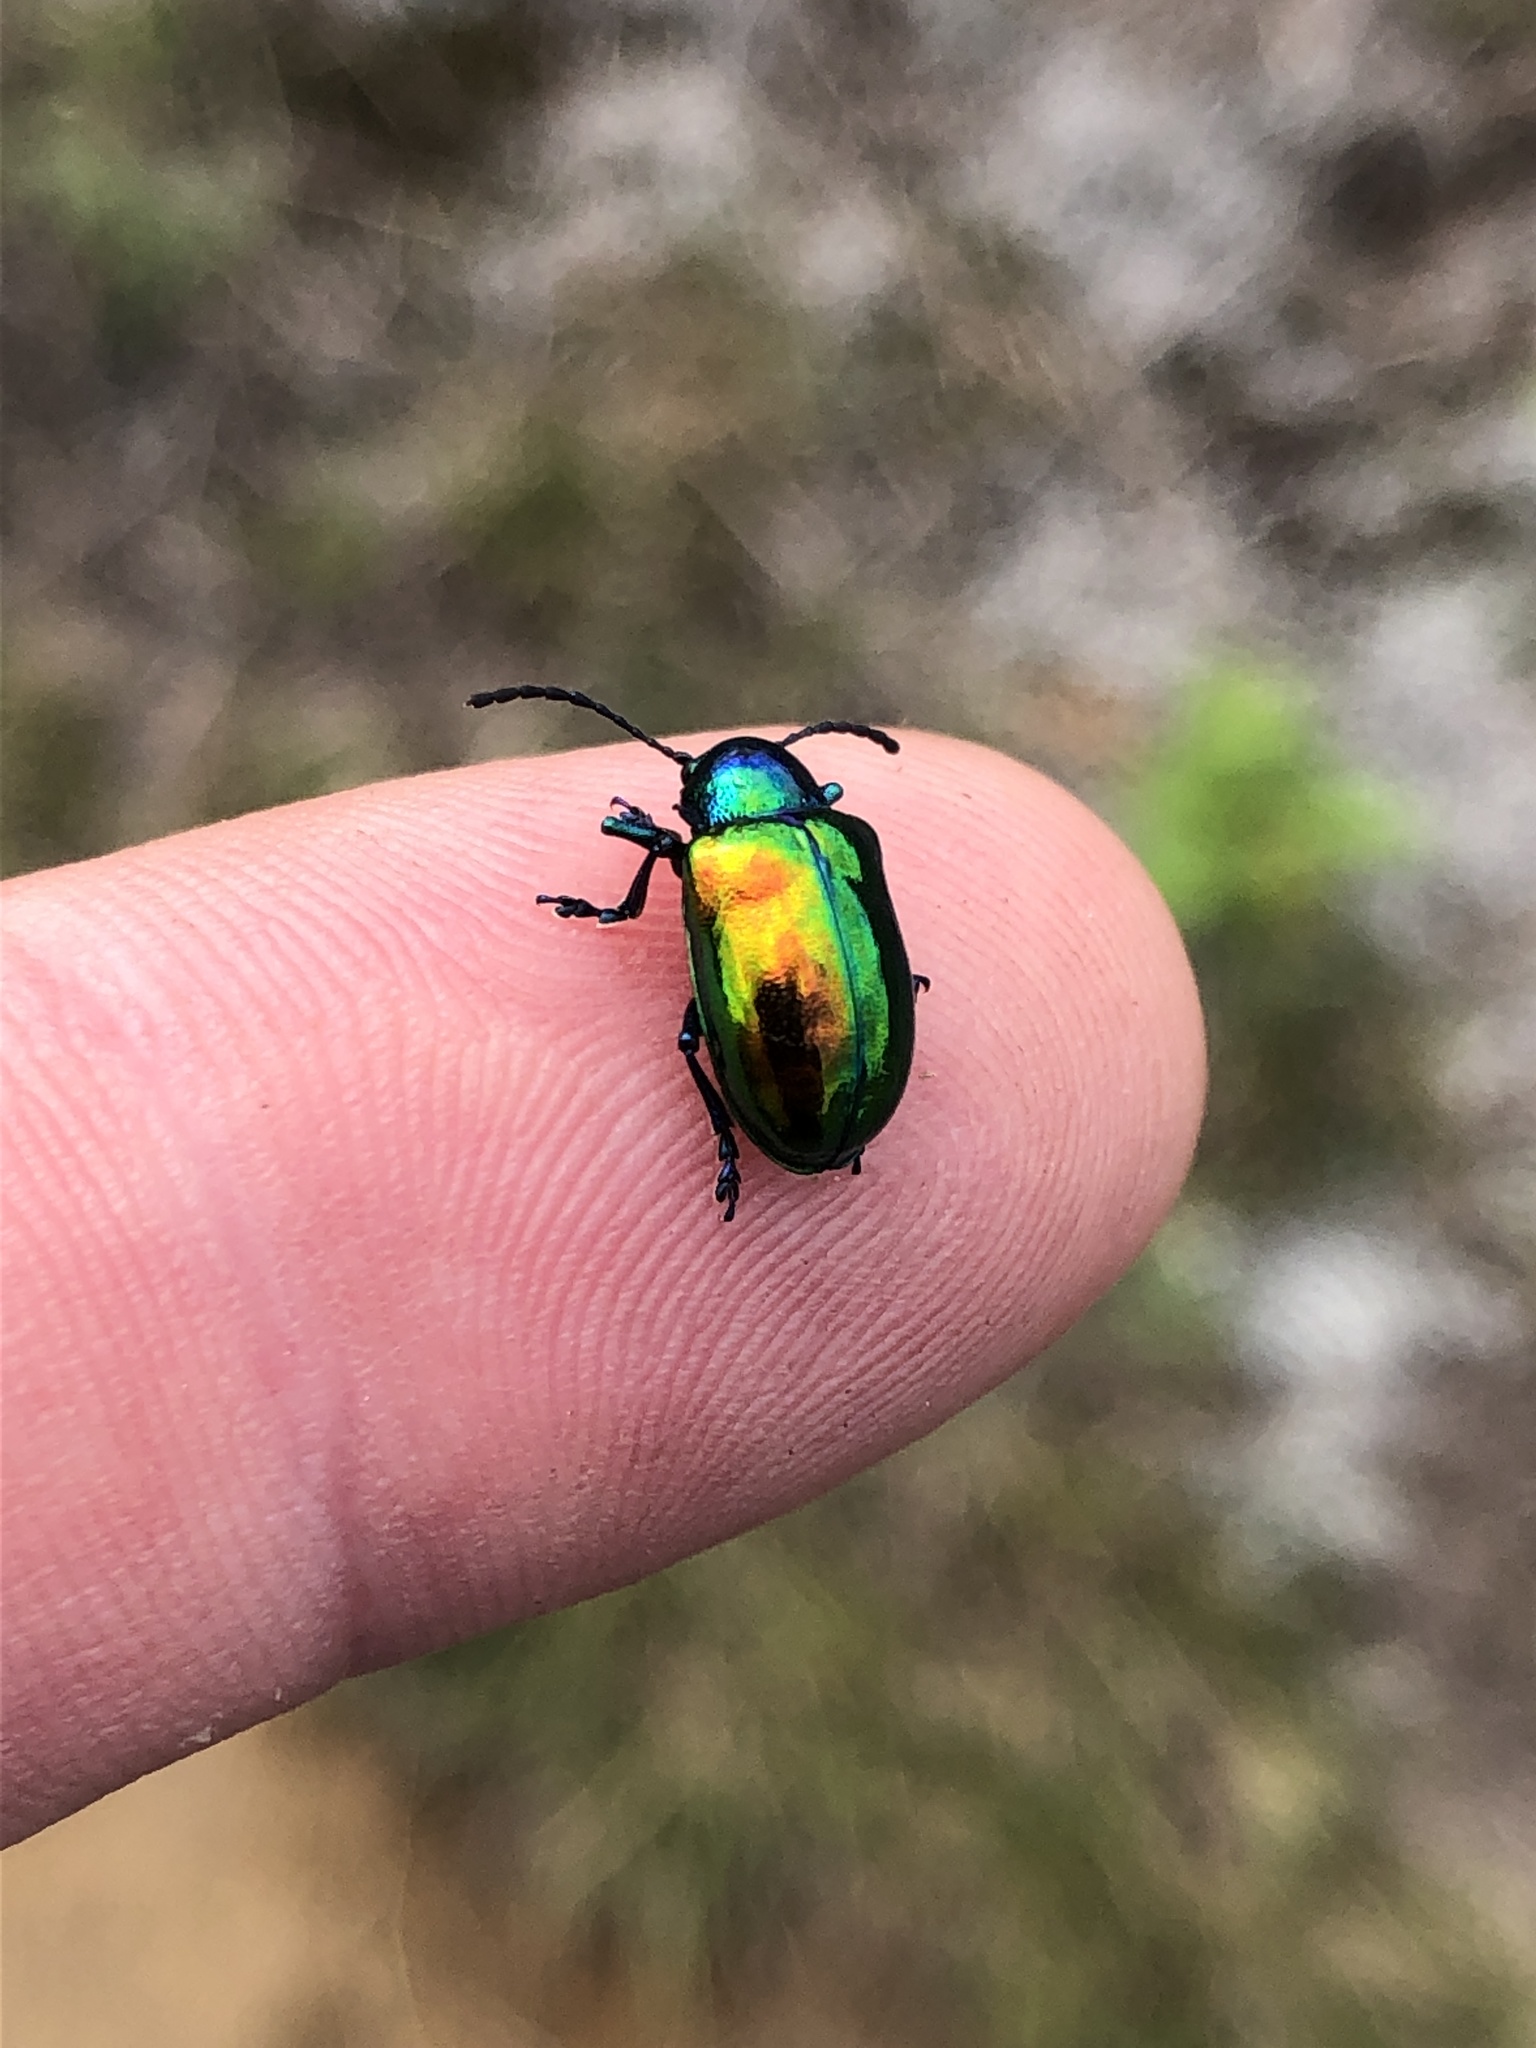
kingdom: Animalia
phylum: Arthropoda
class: Insecta
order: Coleoptera
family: Chrysomelidae
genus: Chrysochus
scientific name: Chrysochus auratus
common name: Dogbane leaf beetle
